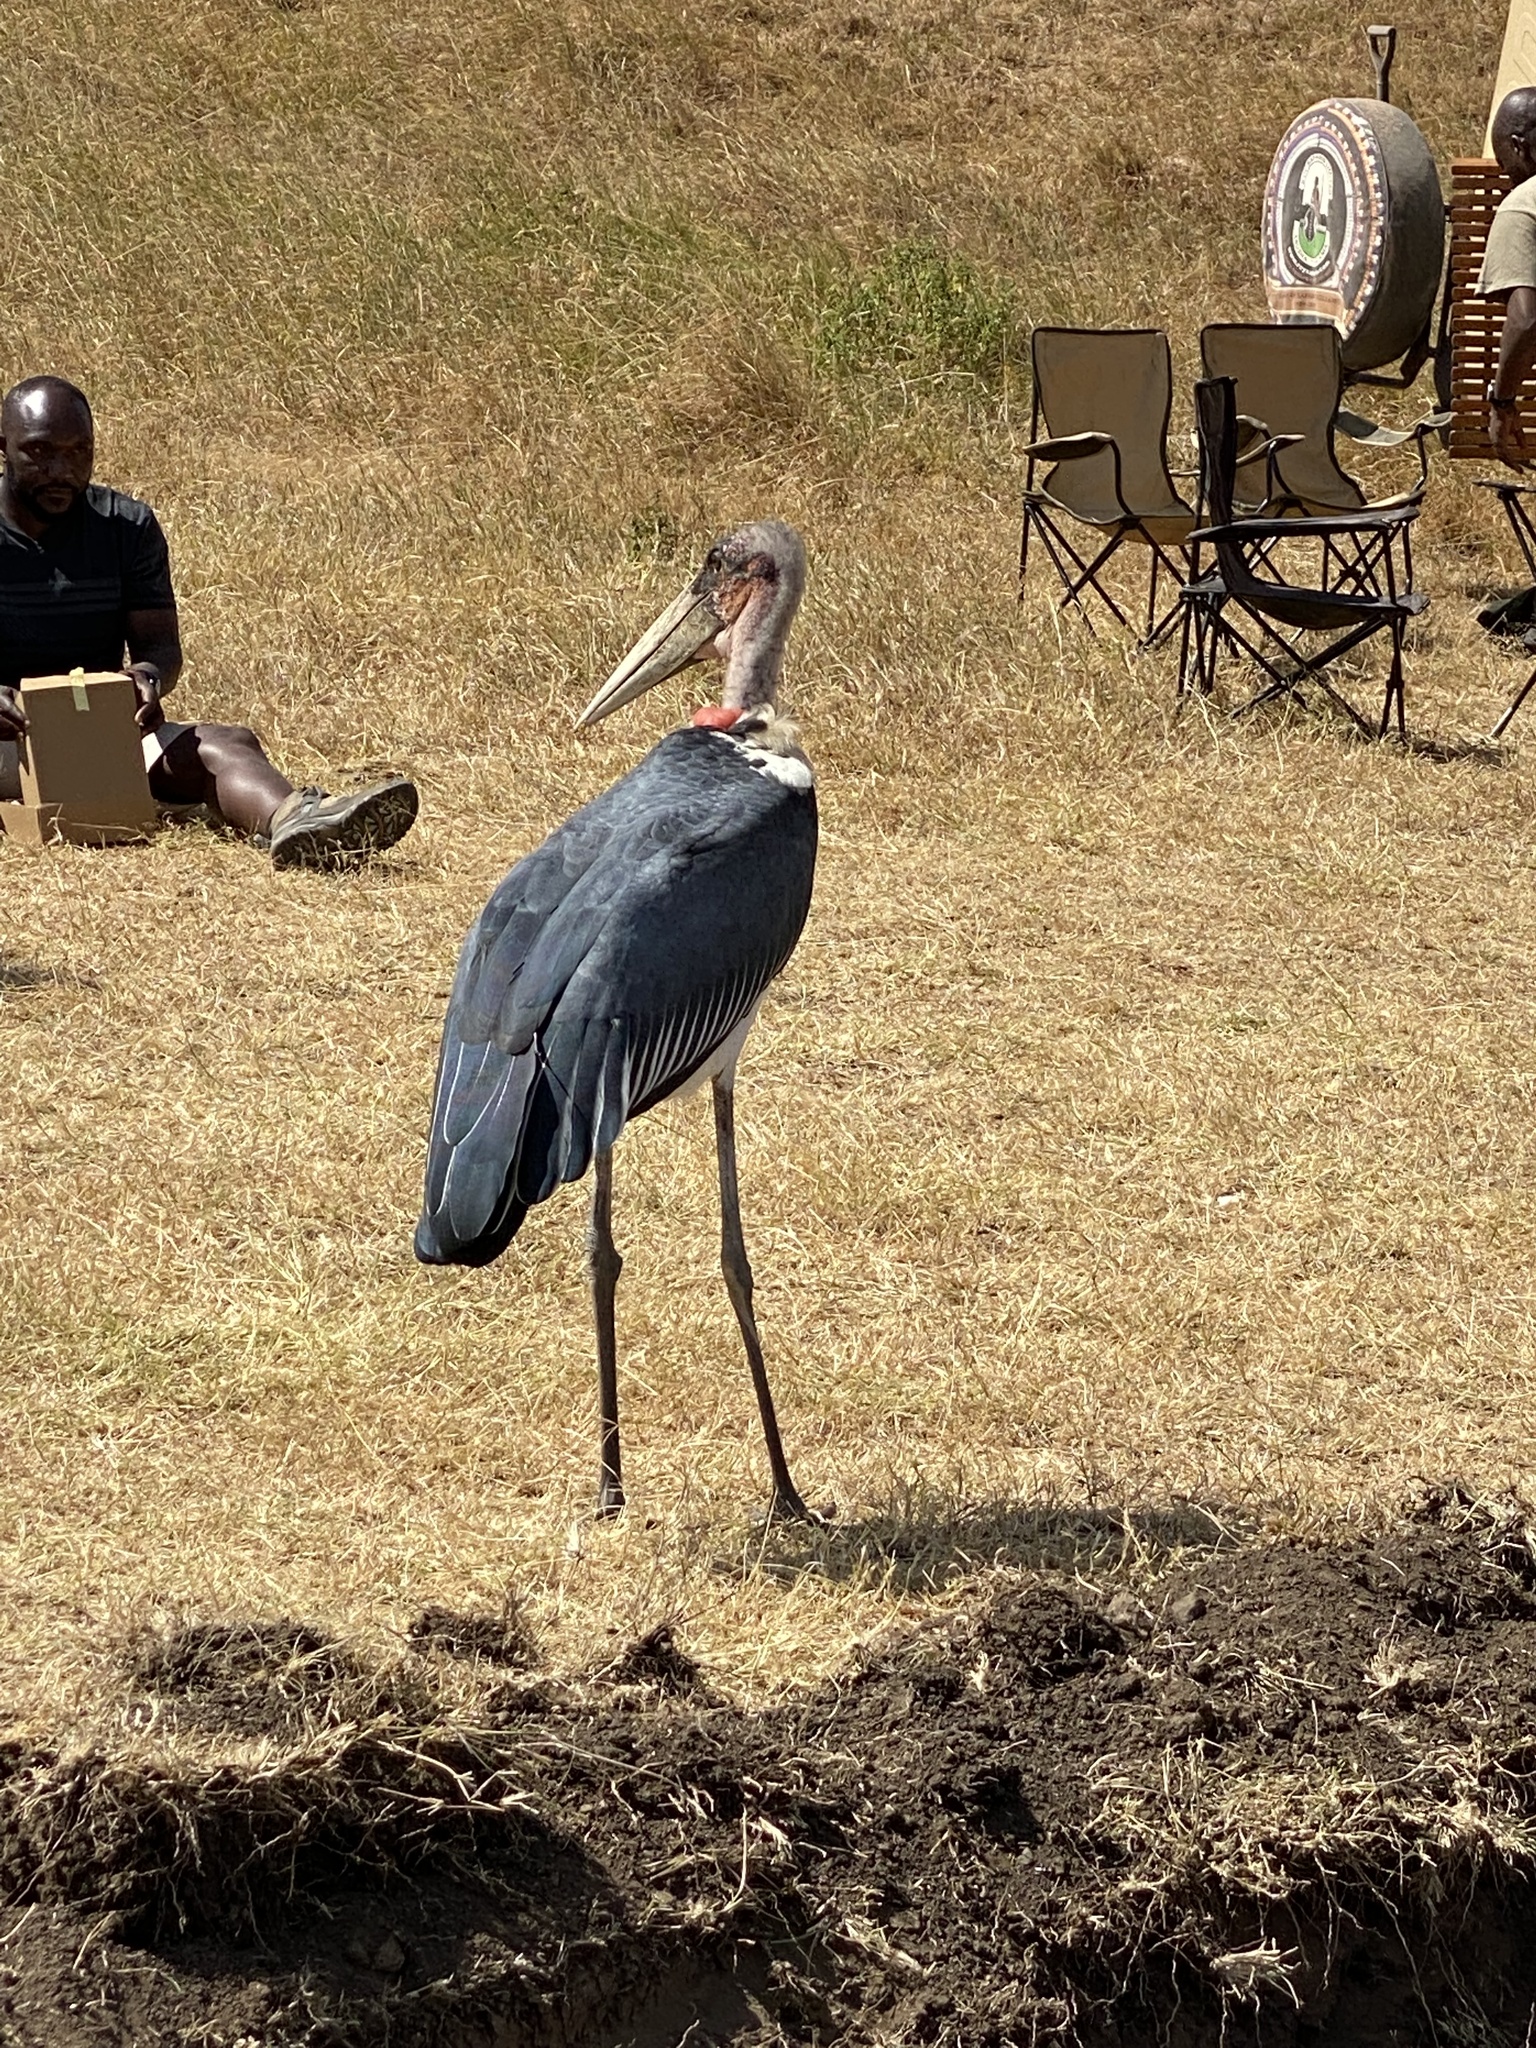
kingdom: Animalia
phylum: Chordata
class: Aves
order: Ciconiiformes
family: Ciconiidae
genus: Leptoptilos
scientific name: Leptoptilos crumenifer
